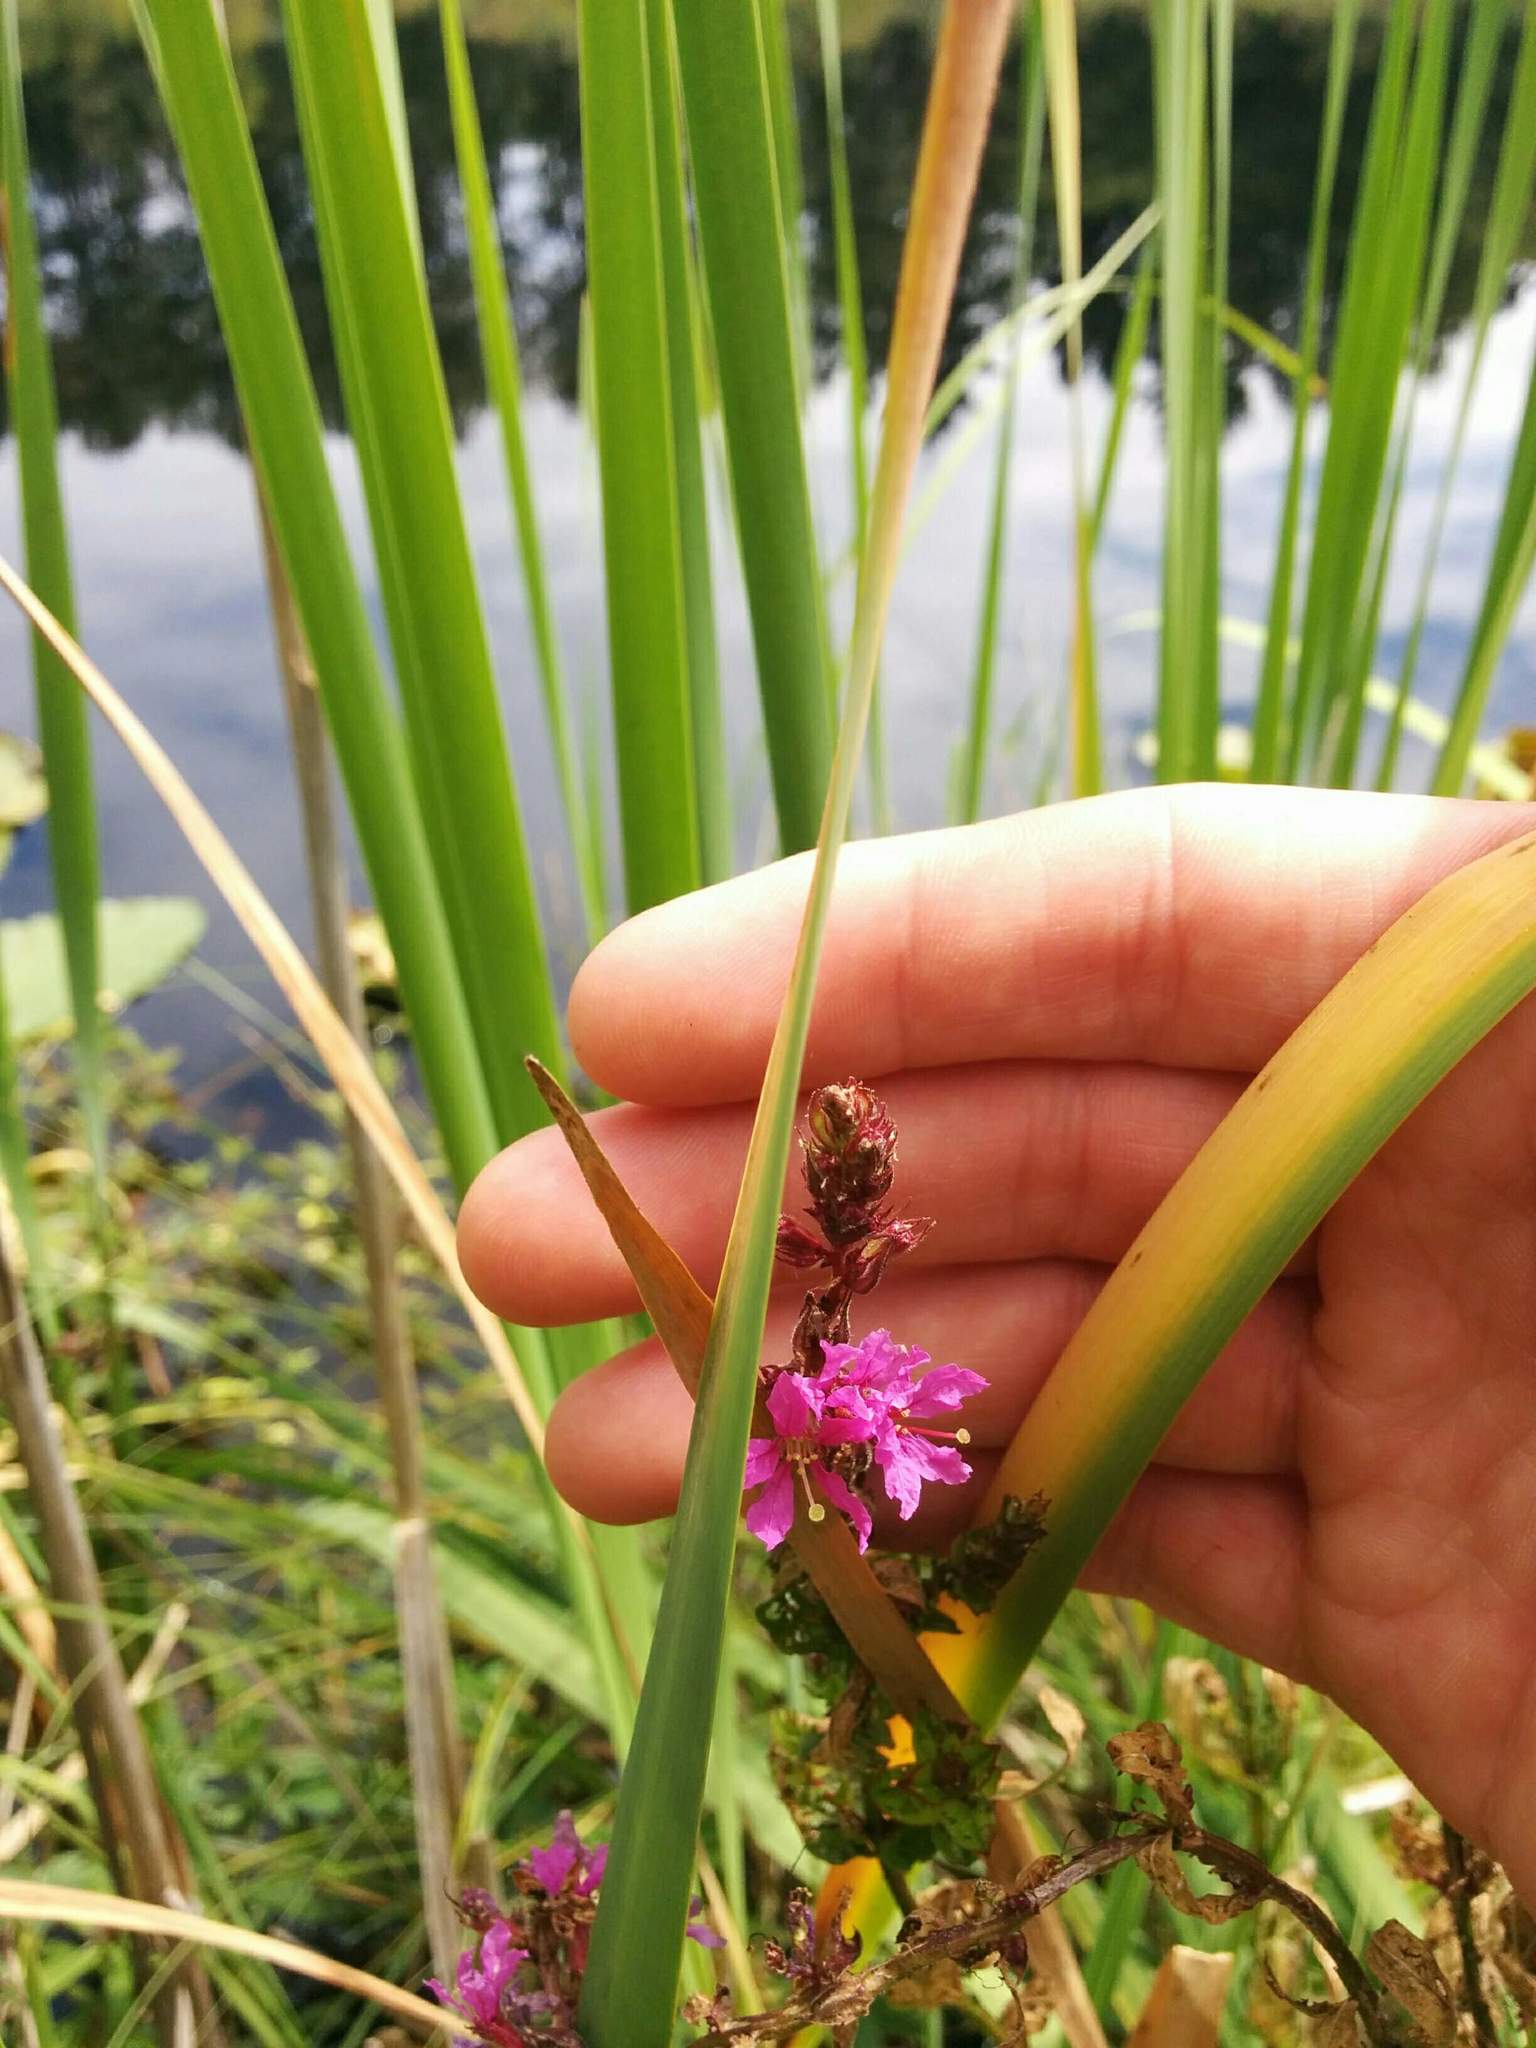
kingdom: Plantae
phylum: Tracheophyta
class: Magnoliopsida
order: Myrtales
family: Lythraceae
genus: Lythrum
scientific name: Lythrum salicaria
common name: Purple loosestrife
